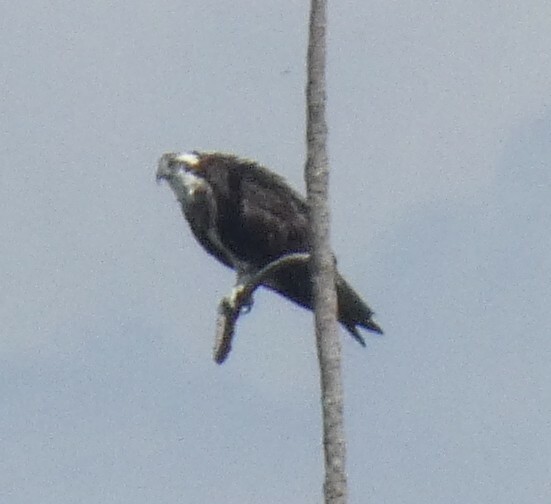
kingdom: Animalia
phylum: Chordata
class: Aves
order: Accipitriformes
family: Pandionidae
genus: Pandion
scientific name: Pandion haliaetus
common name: Osprey
